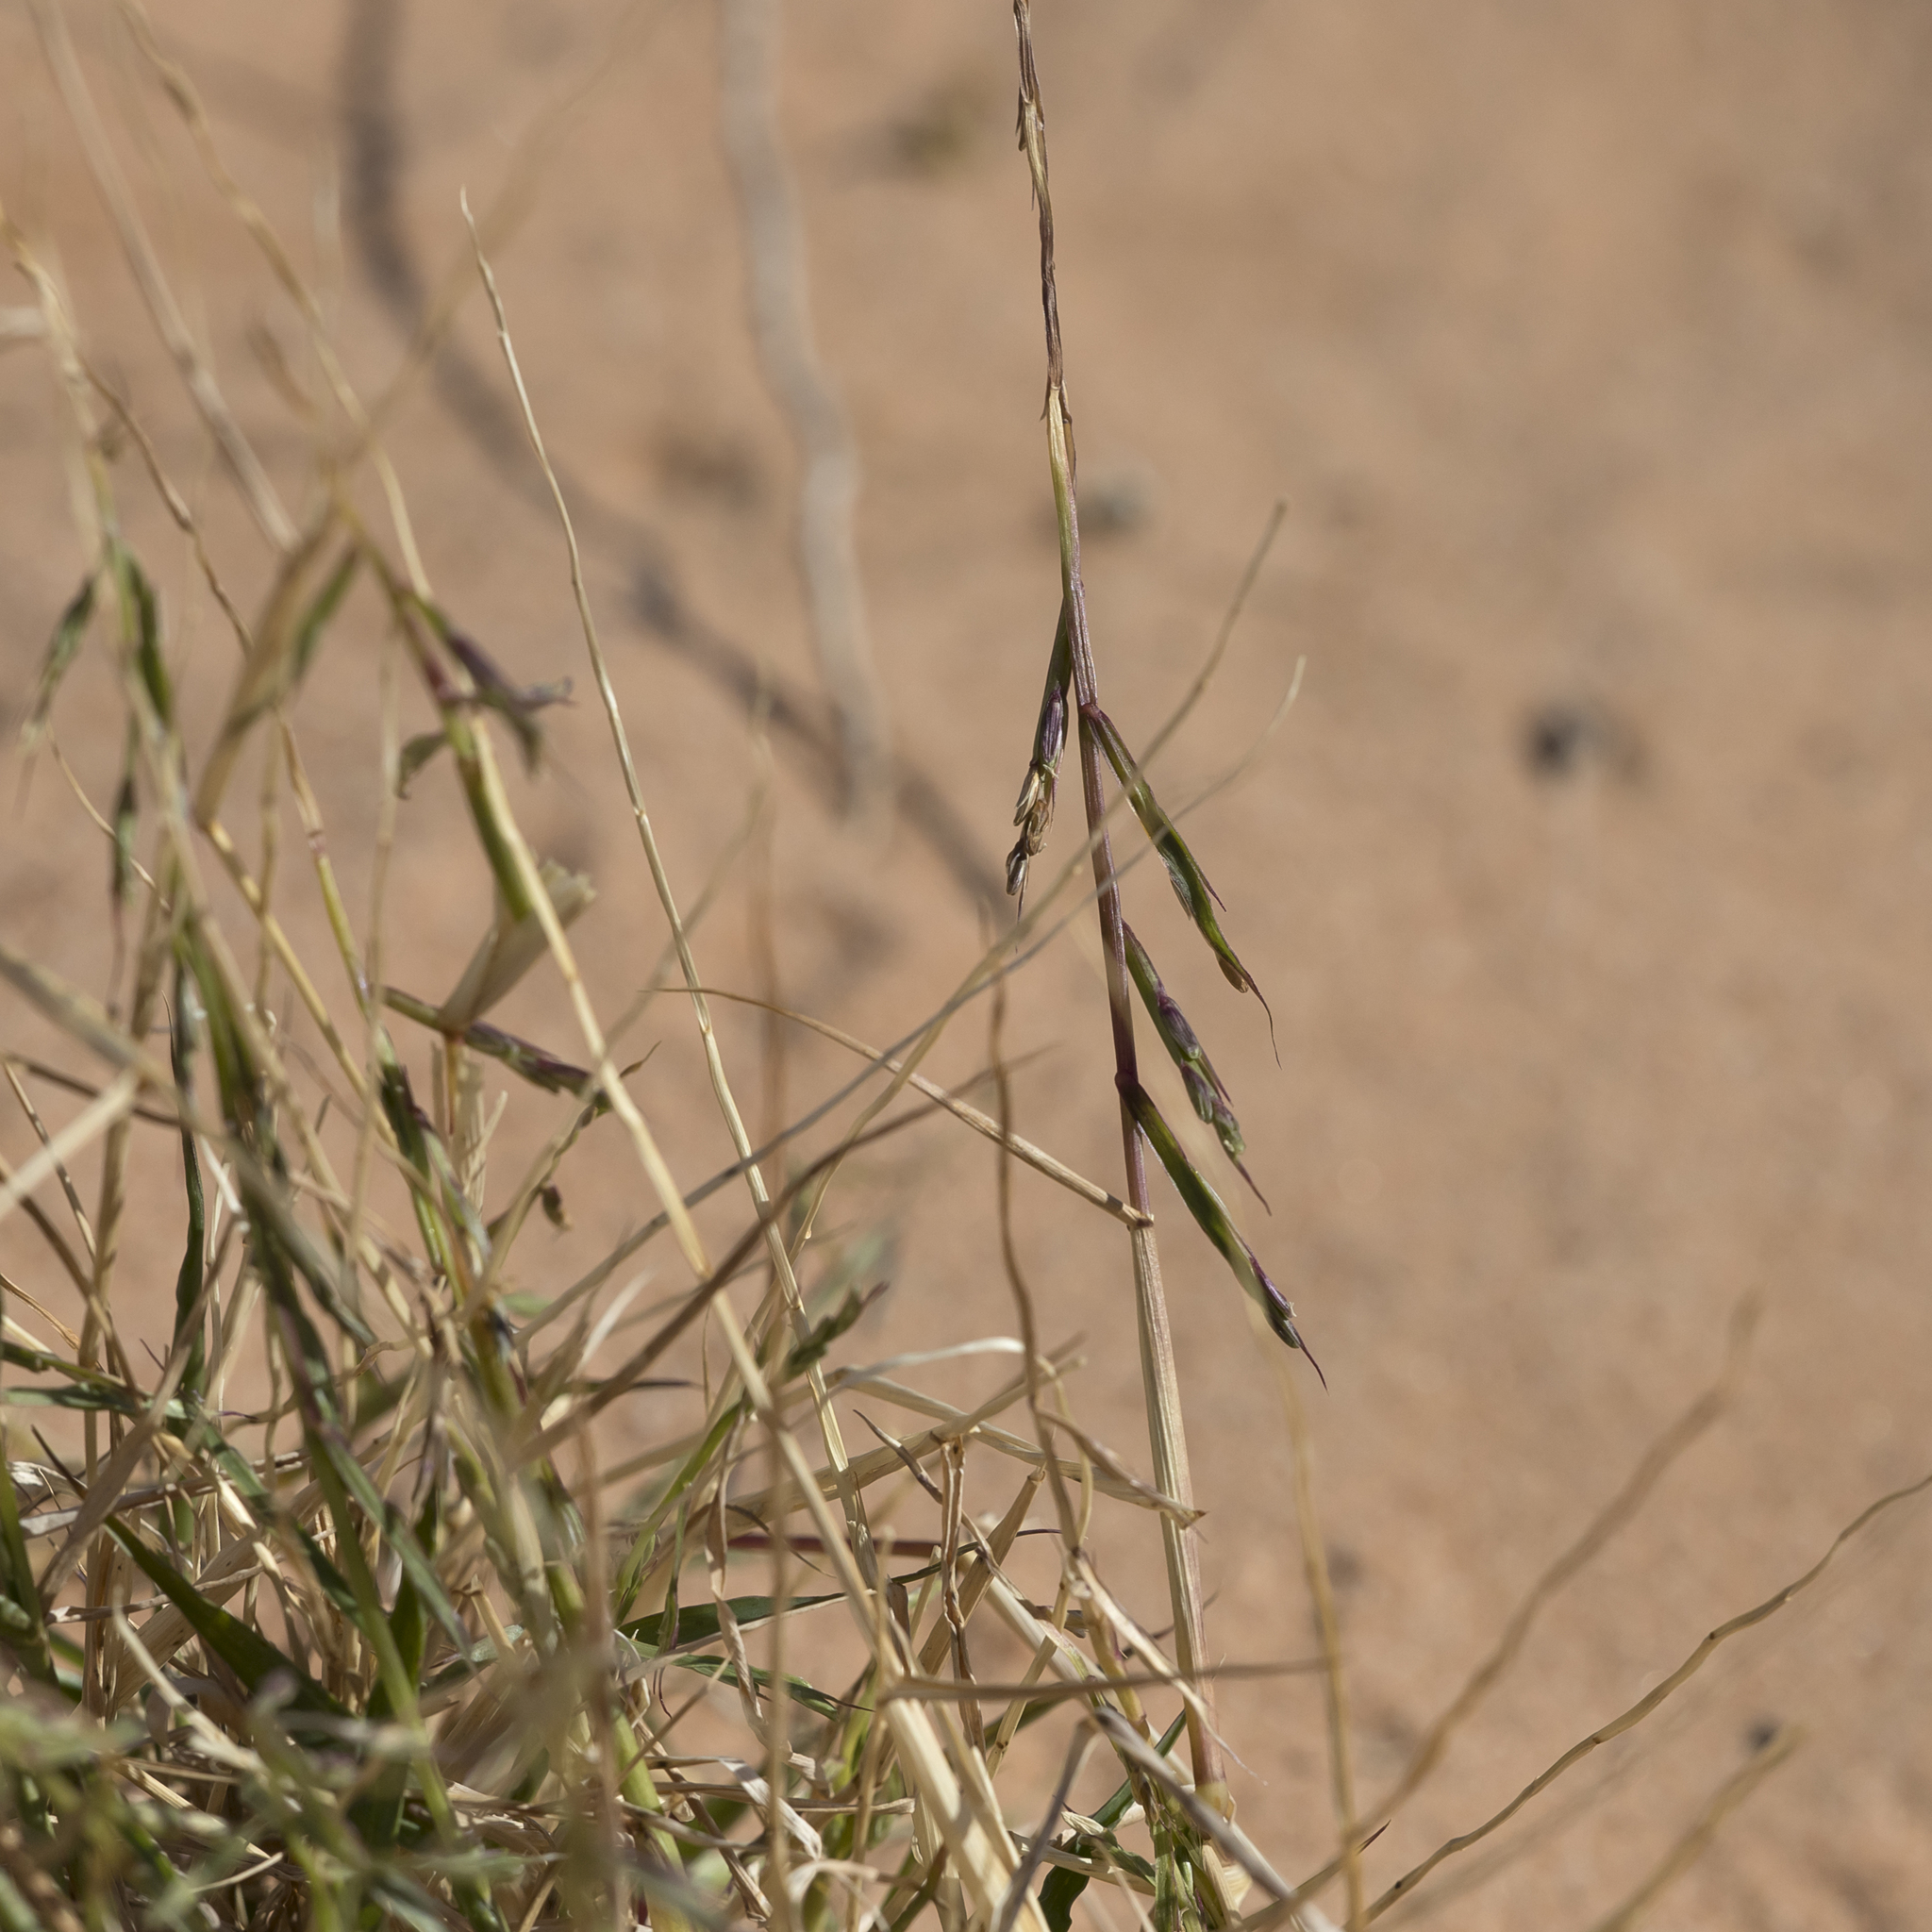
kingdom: Plantae
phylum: Tracheophyta
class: Liliopsida
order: Poales
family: Poaceae
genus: Paractaenum
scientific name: Paractaenum novae-hollandiae
